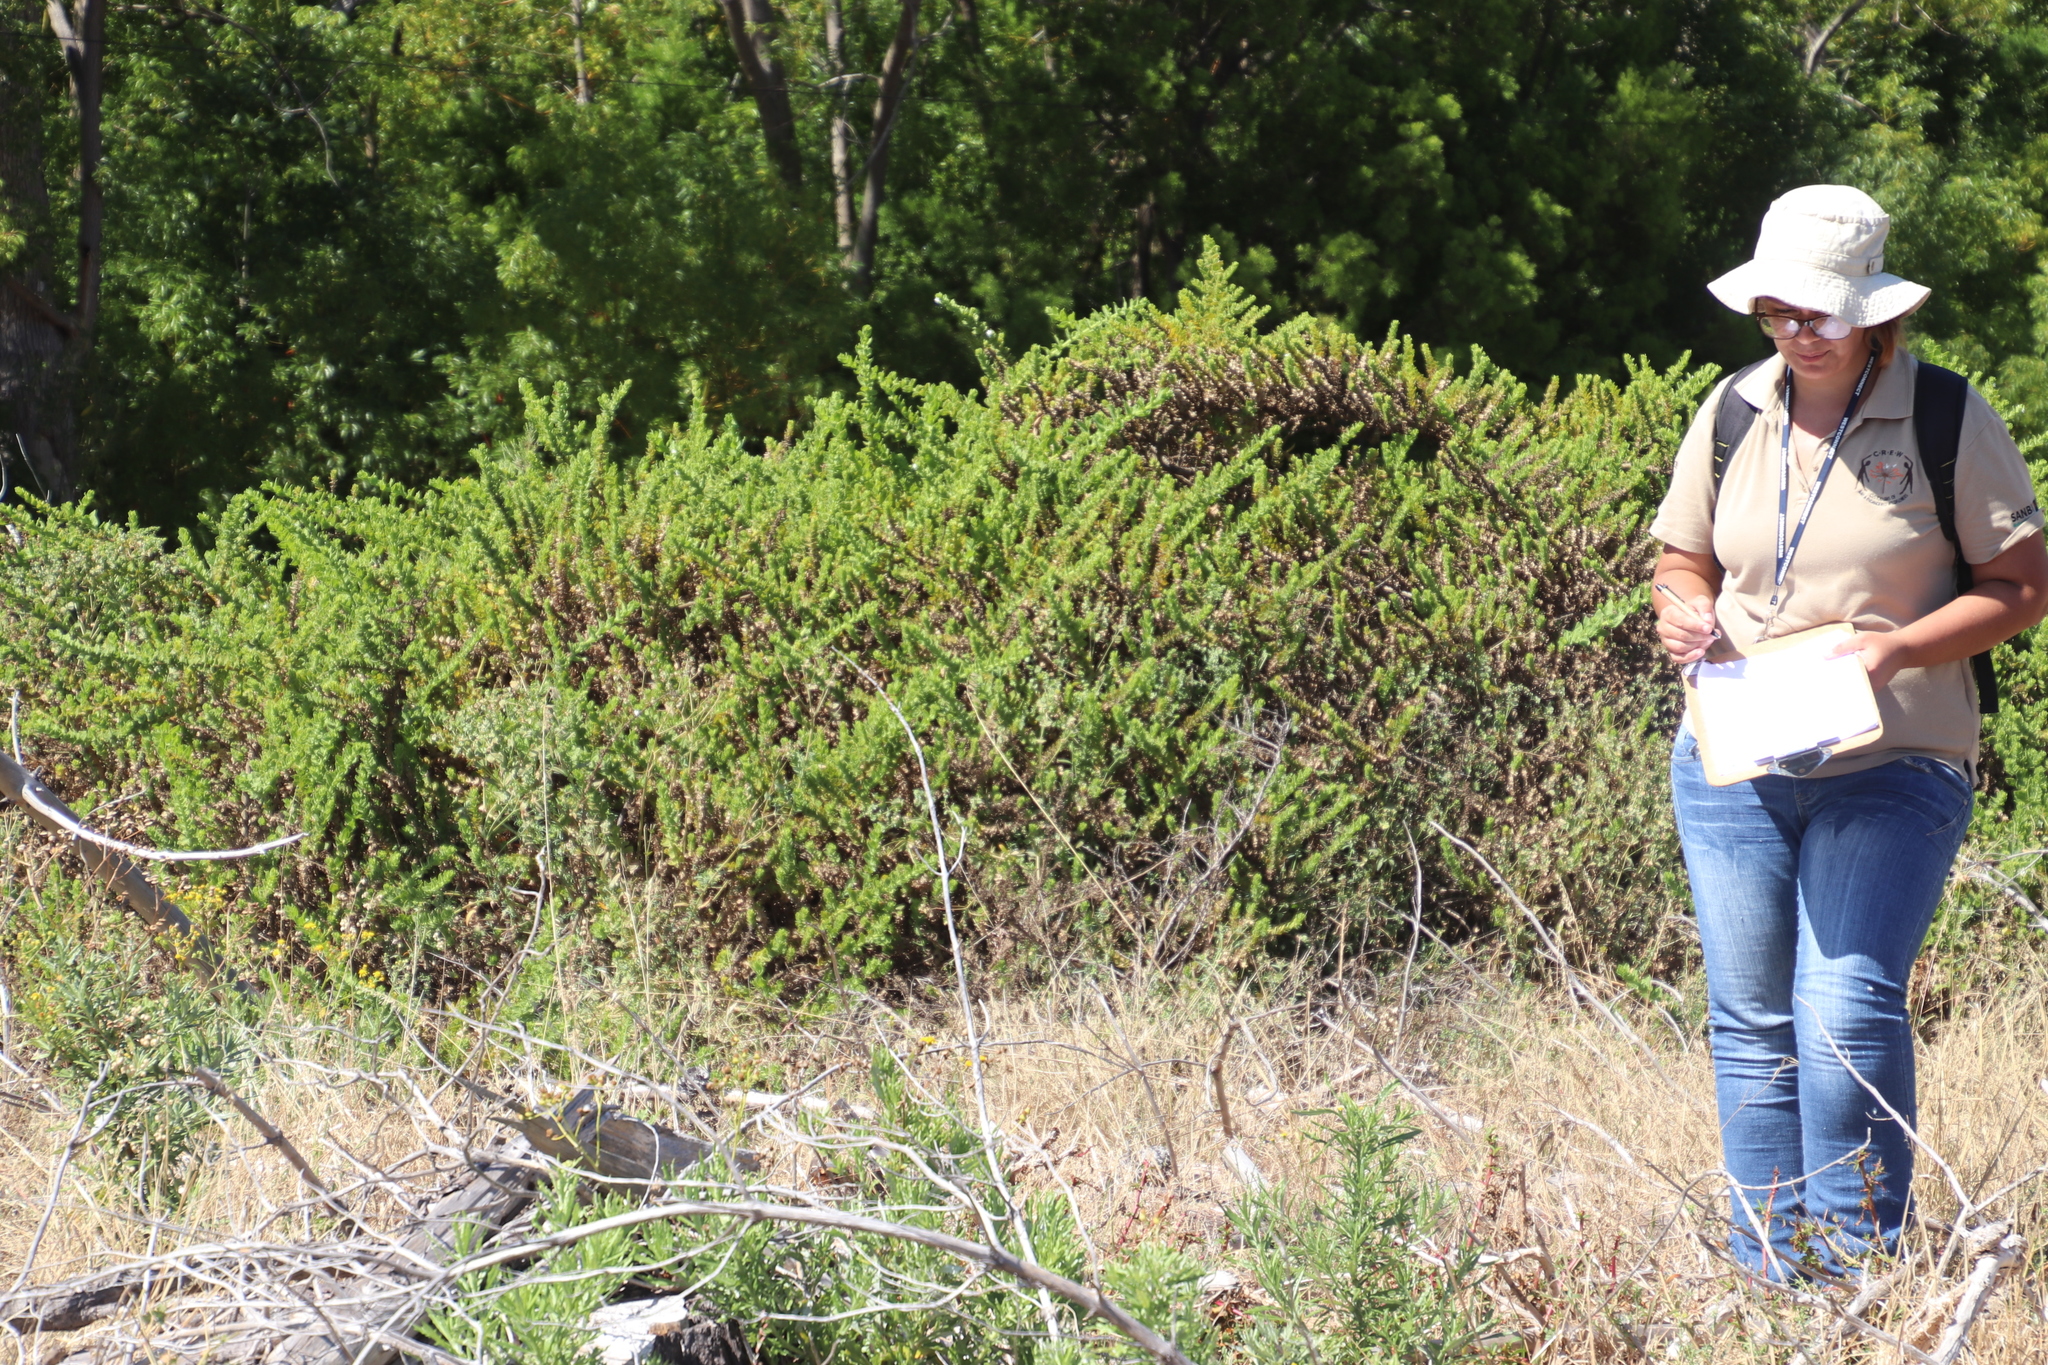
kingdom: Plantae
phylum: Tracheophyta
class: Magnoliopsida
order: Lamiales
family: Scrophulariaceae
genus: Oftia
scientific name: Oftia africana
